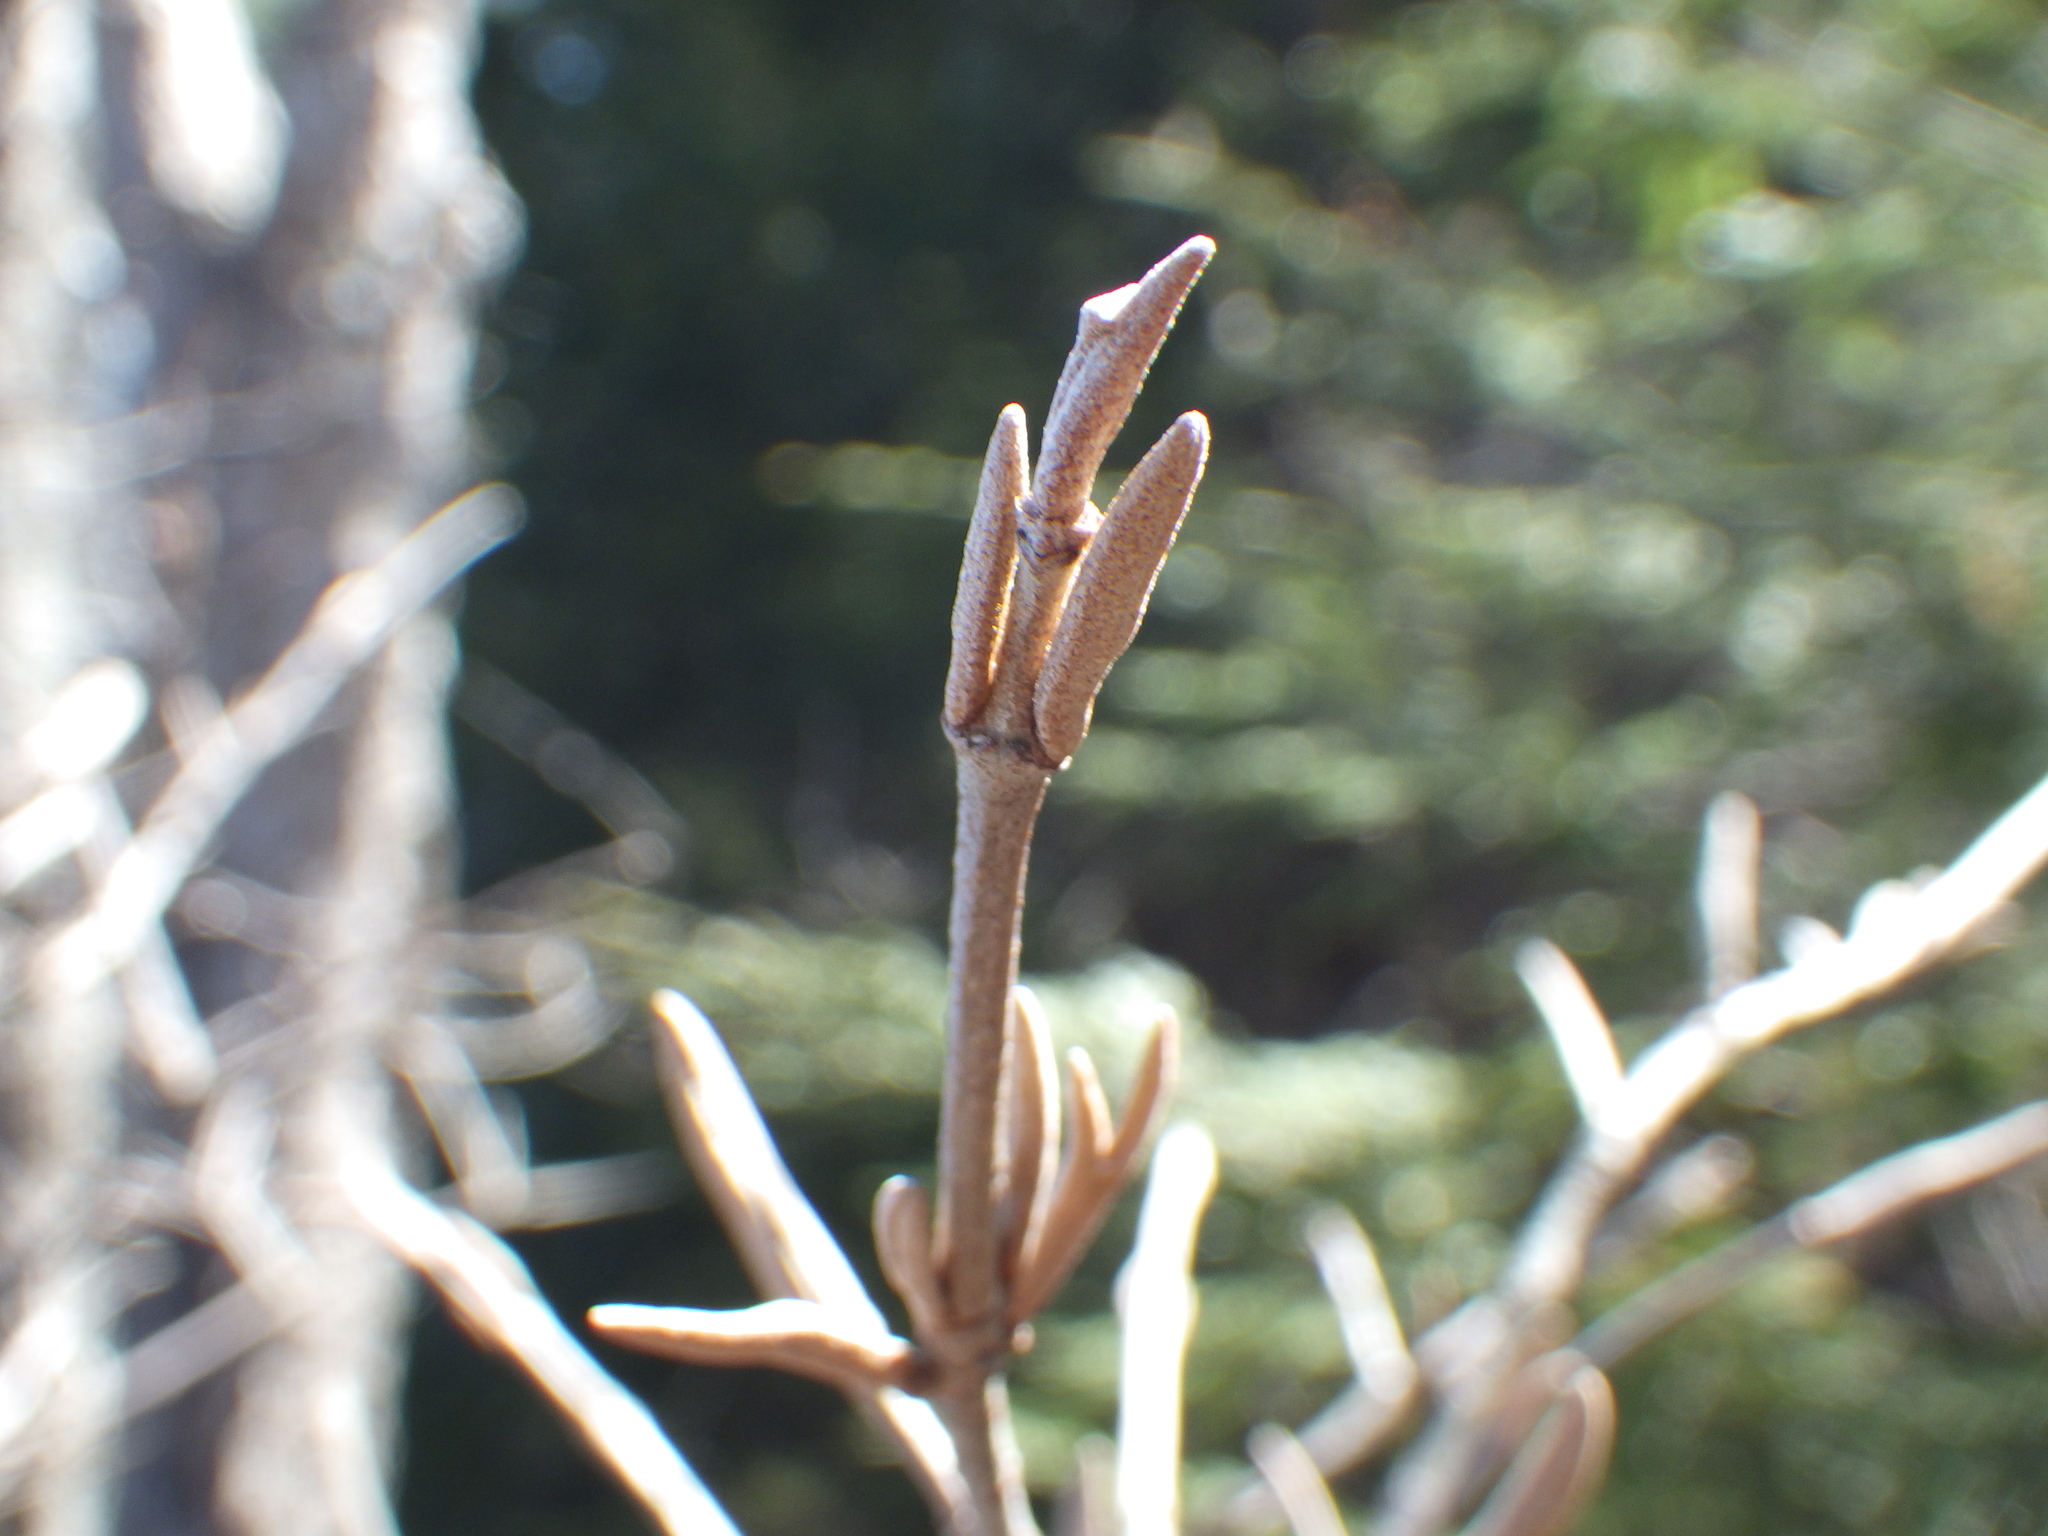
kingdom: Plantae
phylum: Tracheophyta
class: Magnoliopsida
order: Dipsacales
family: Viburnaceae
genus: Viburnum
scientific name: Viburnum cassinoides
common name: Swamp haw
